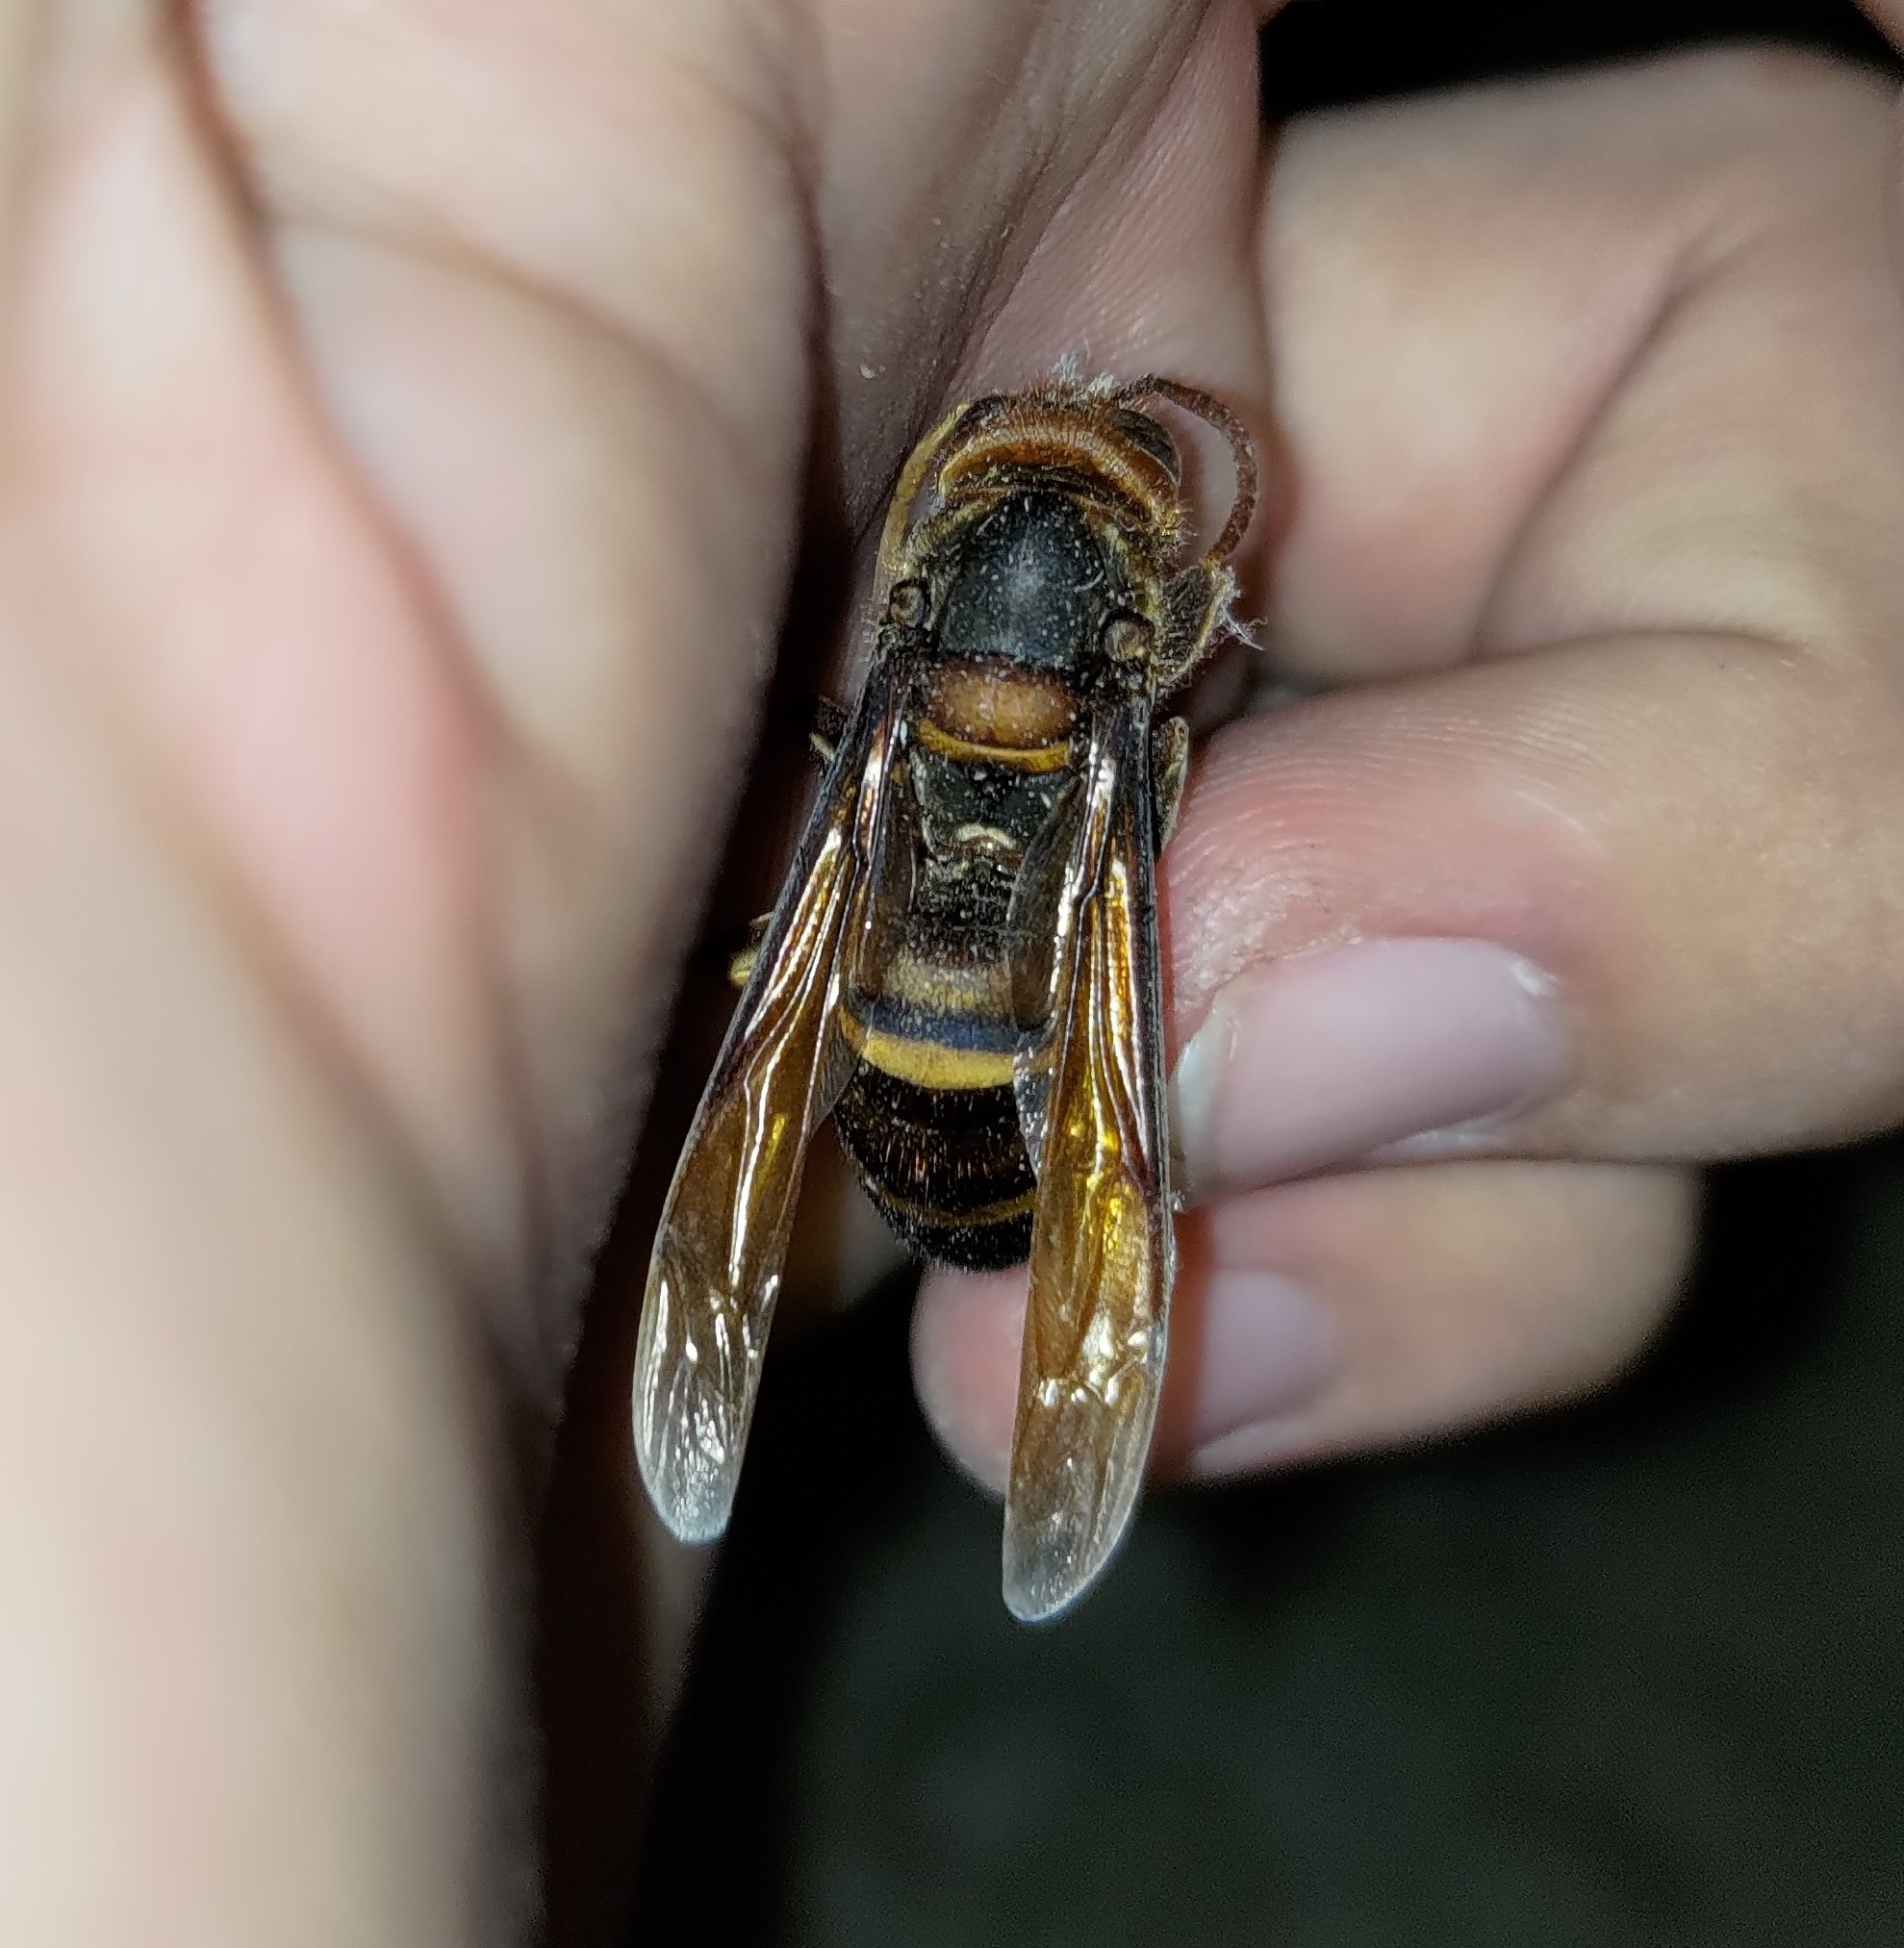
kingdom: Animalia
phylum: Arthropoda
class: Insecta
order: Hymenoptera
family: Vespidae
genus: Vespa
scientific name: Vespa ducalis
